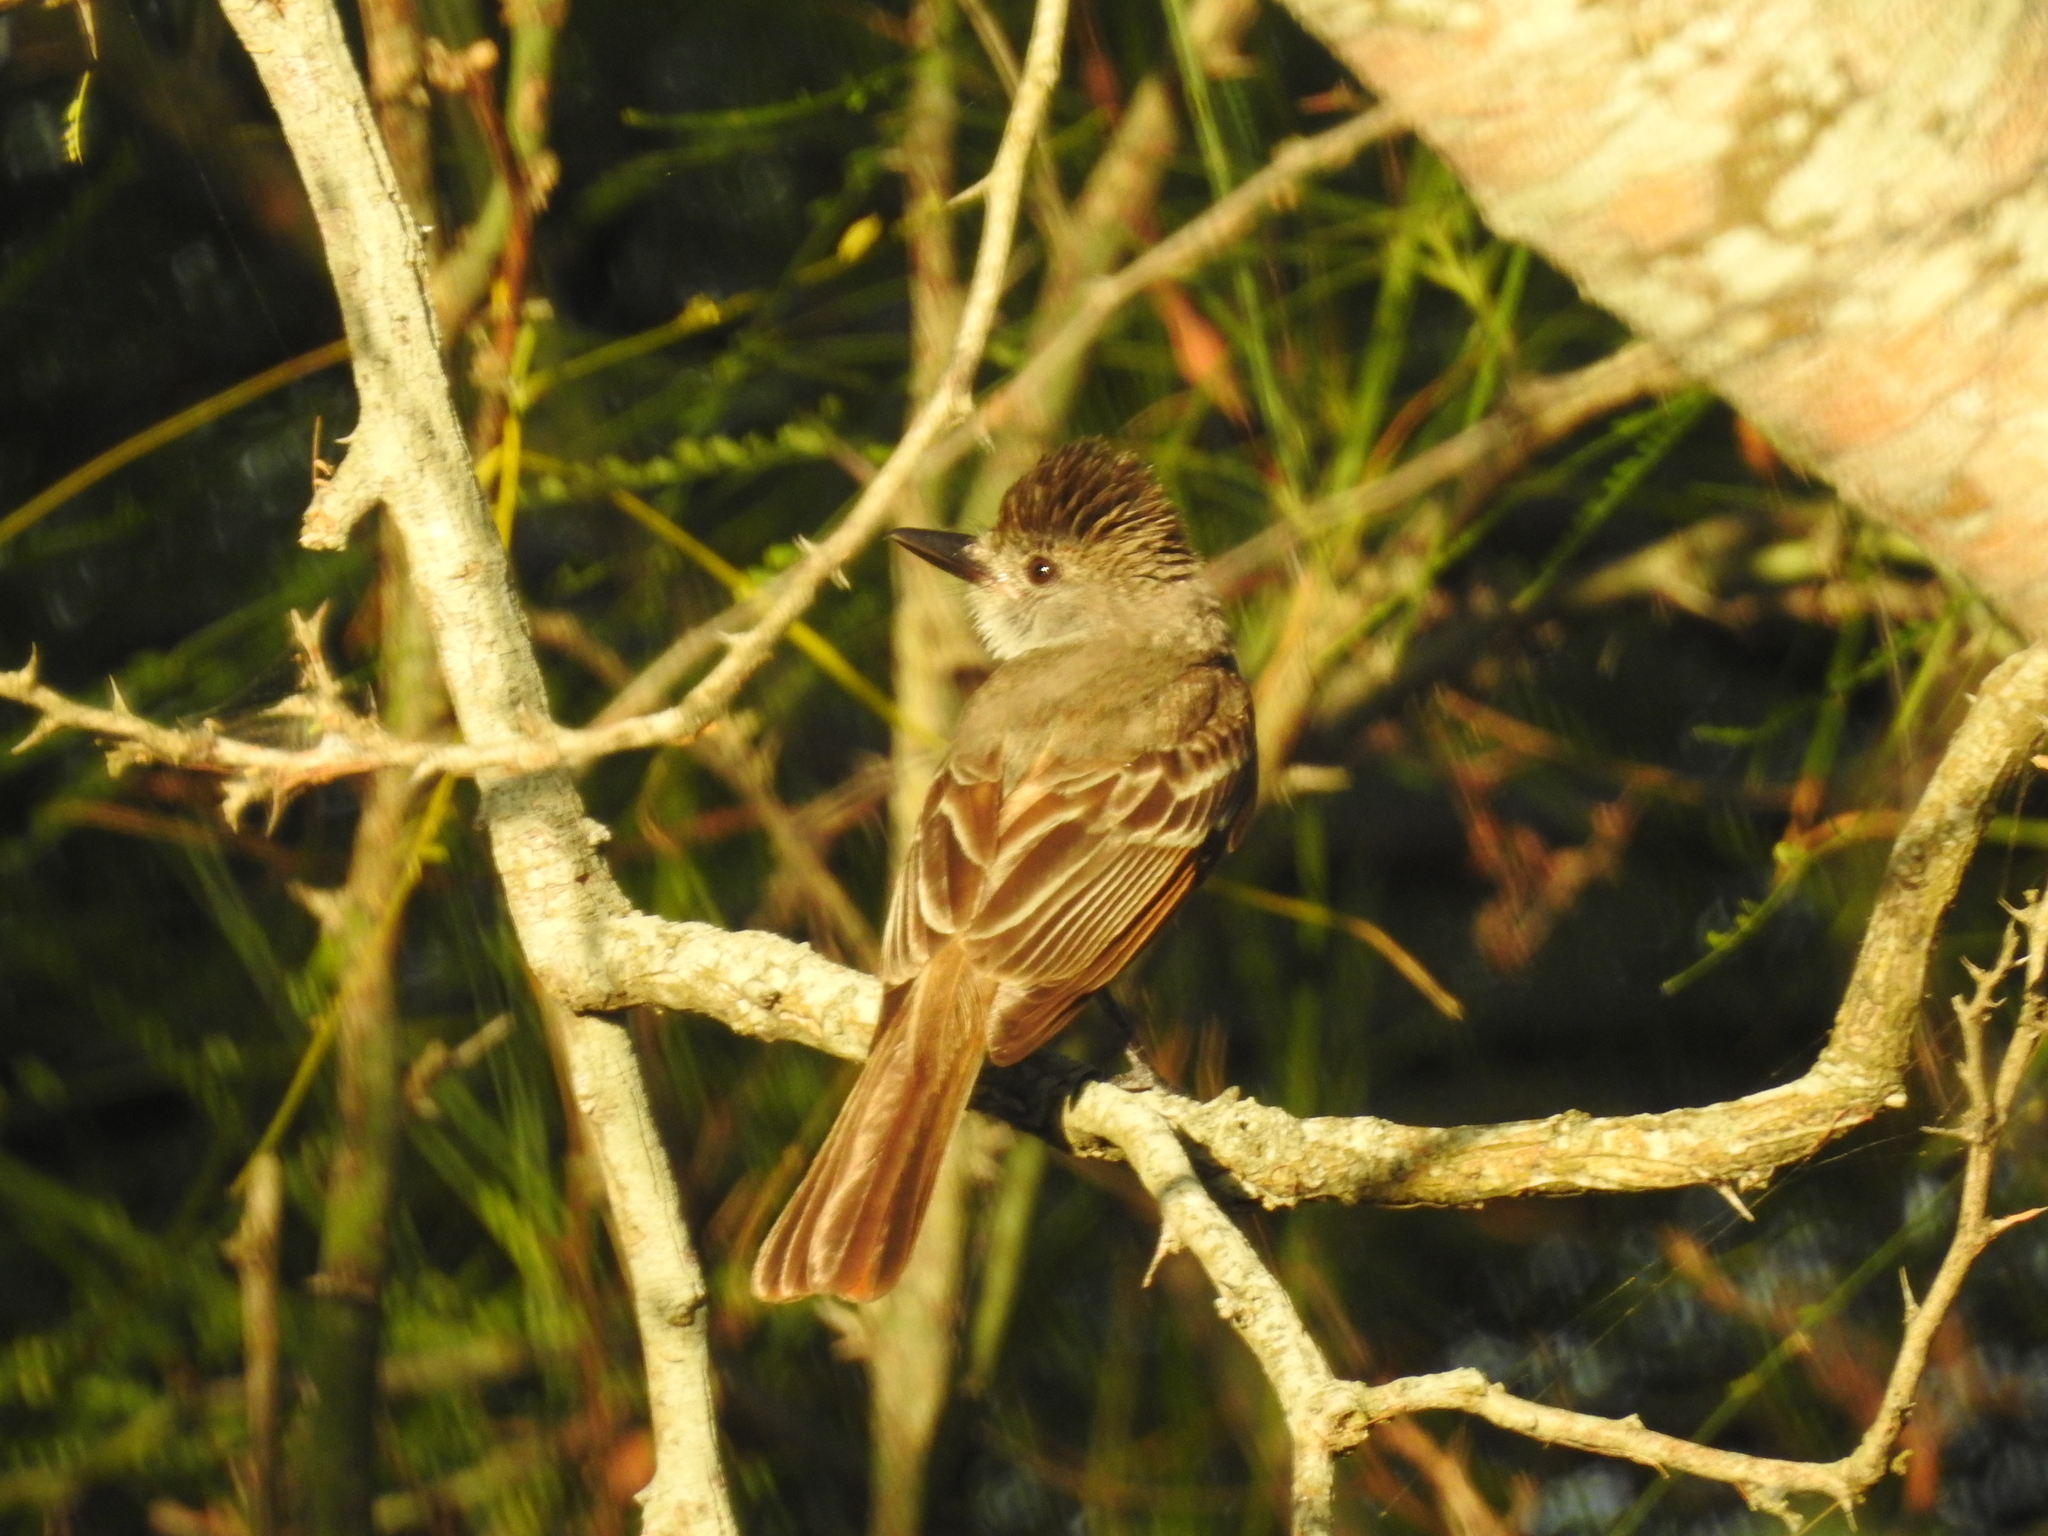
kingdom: Animalia
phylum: Chordata
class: Aves
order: Passeriformes
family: Tyrannidae
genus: Myiarchus
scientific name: Myiarchus tyrannulus
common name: Brown-crested flycatcher
